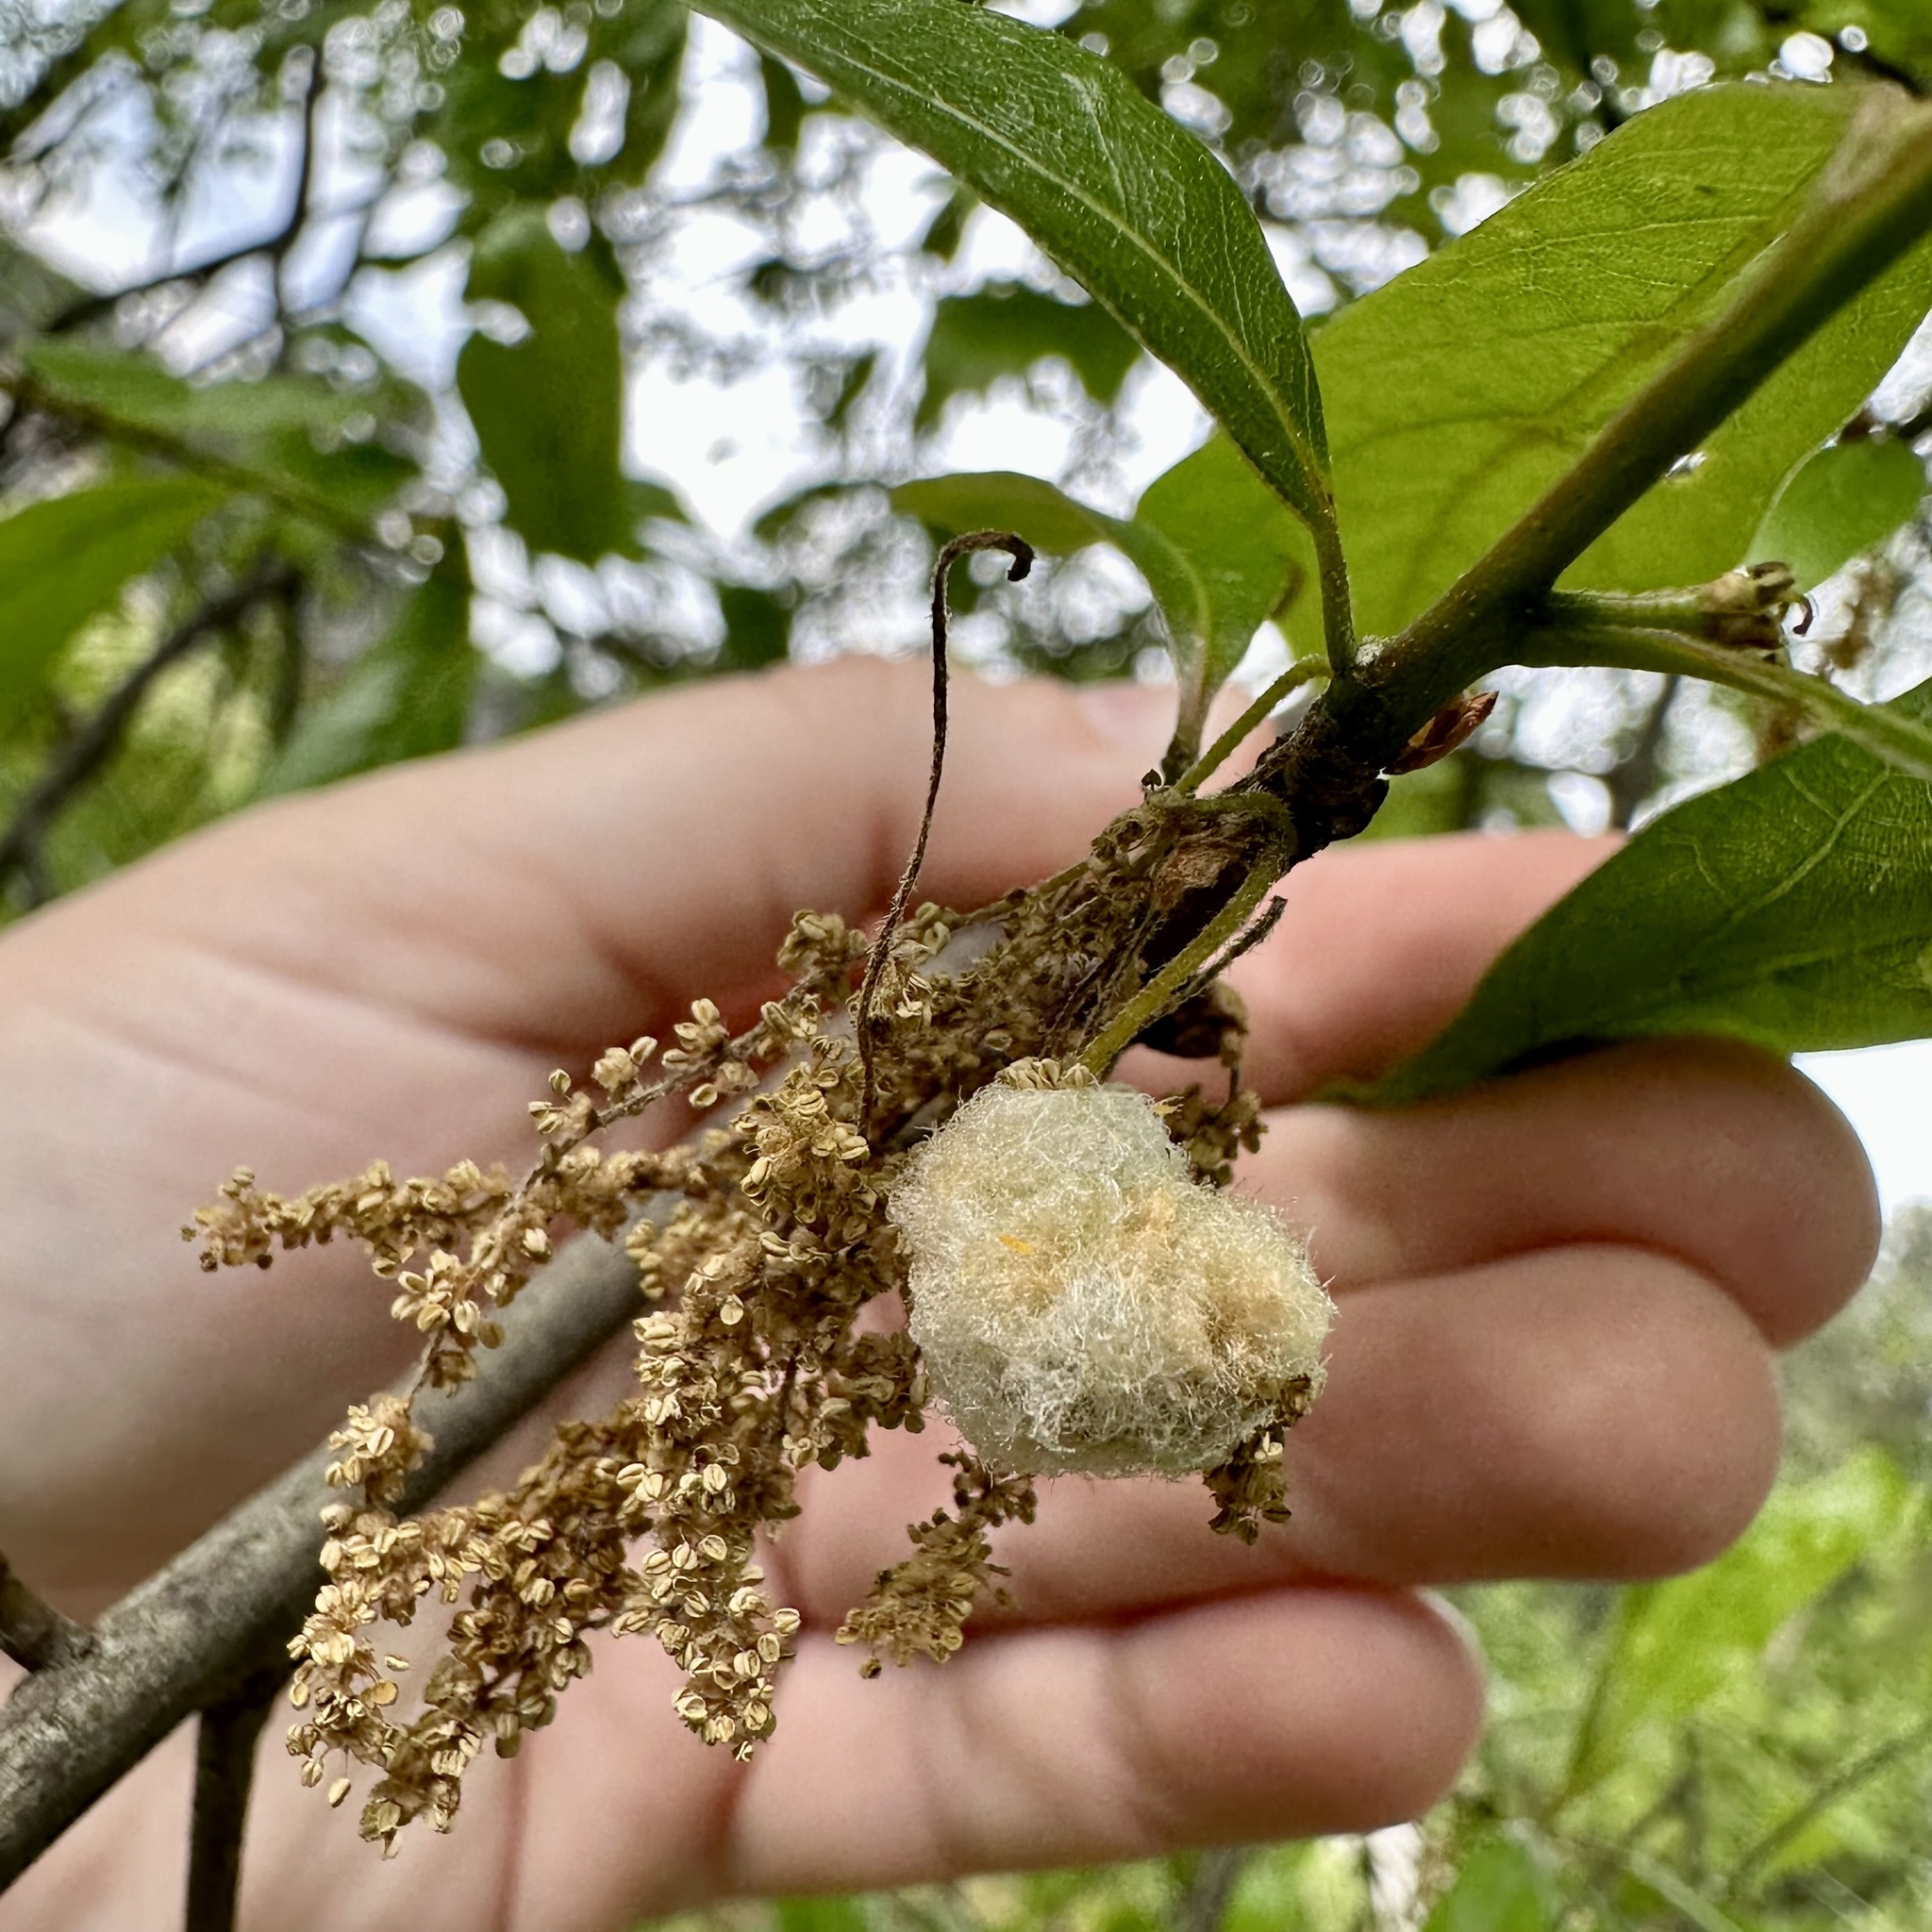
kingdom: Animalia
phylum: Arthropoda
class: Insecta
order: Hymenoptera
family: Cynipidae
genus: Callirhytis
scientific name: Callirhytis
